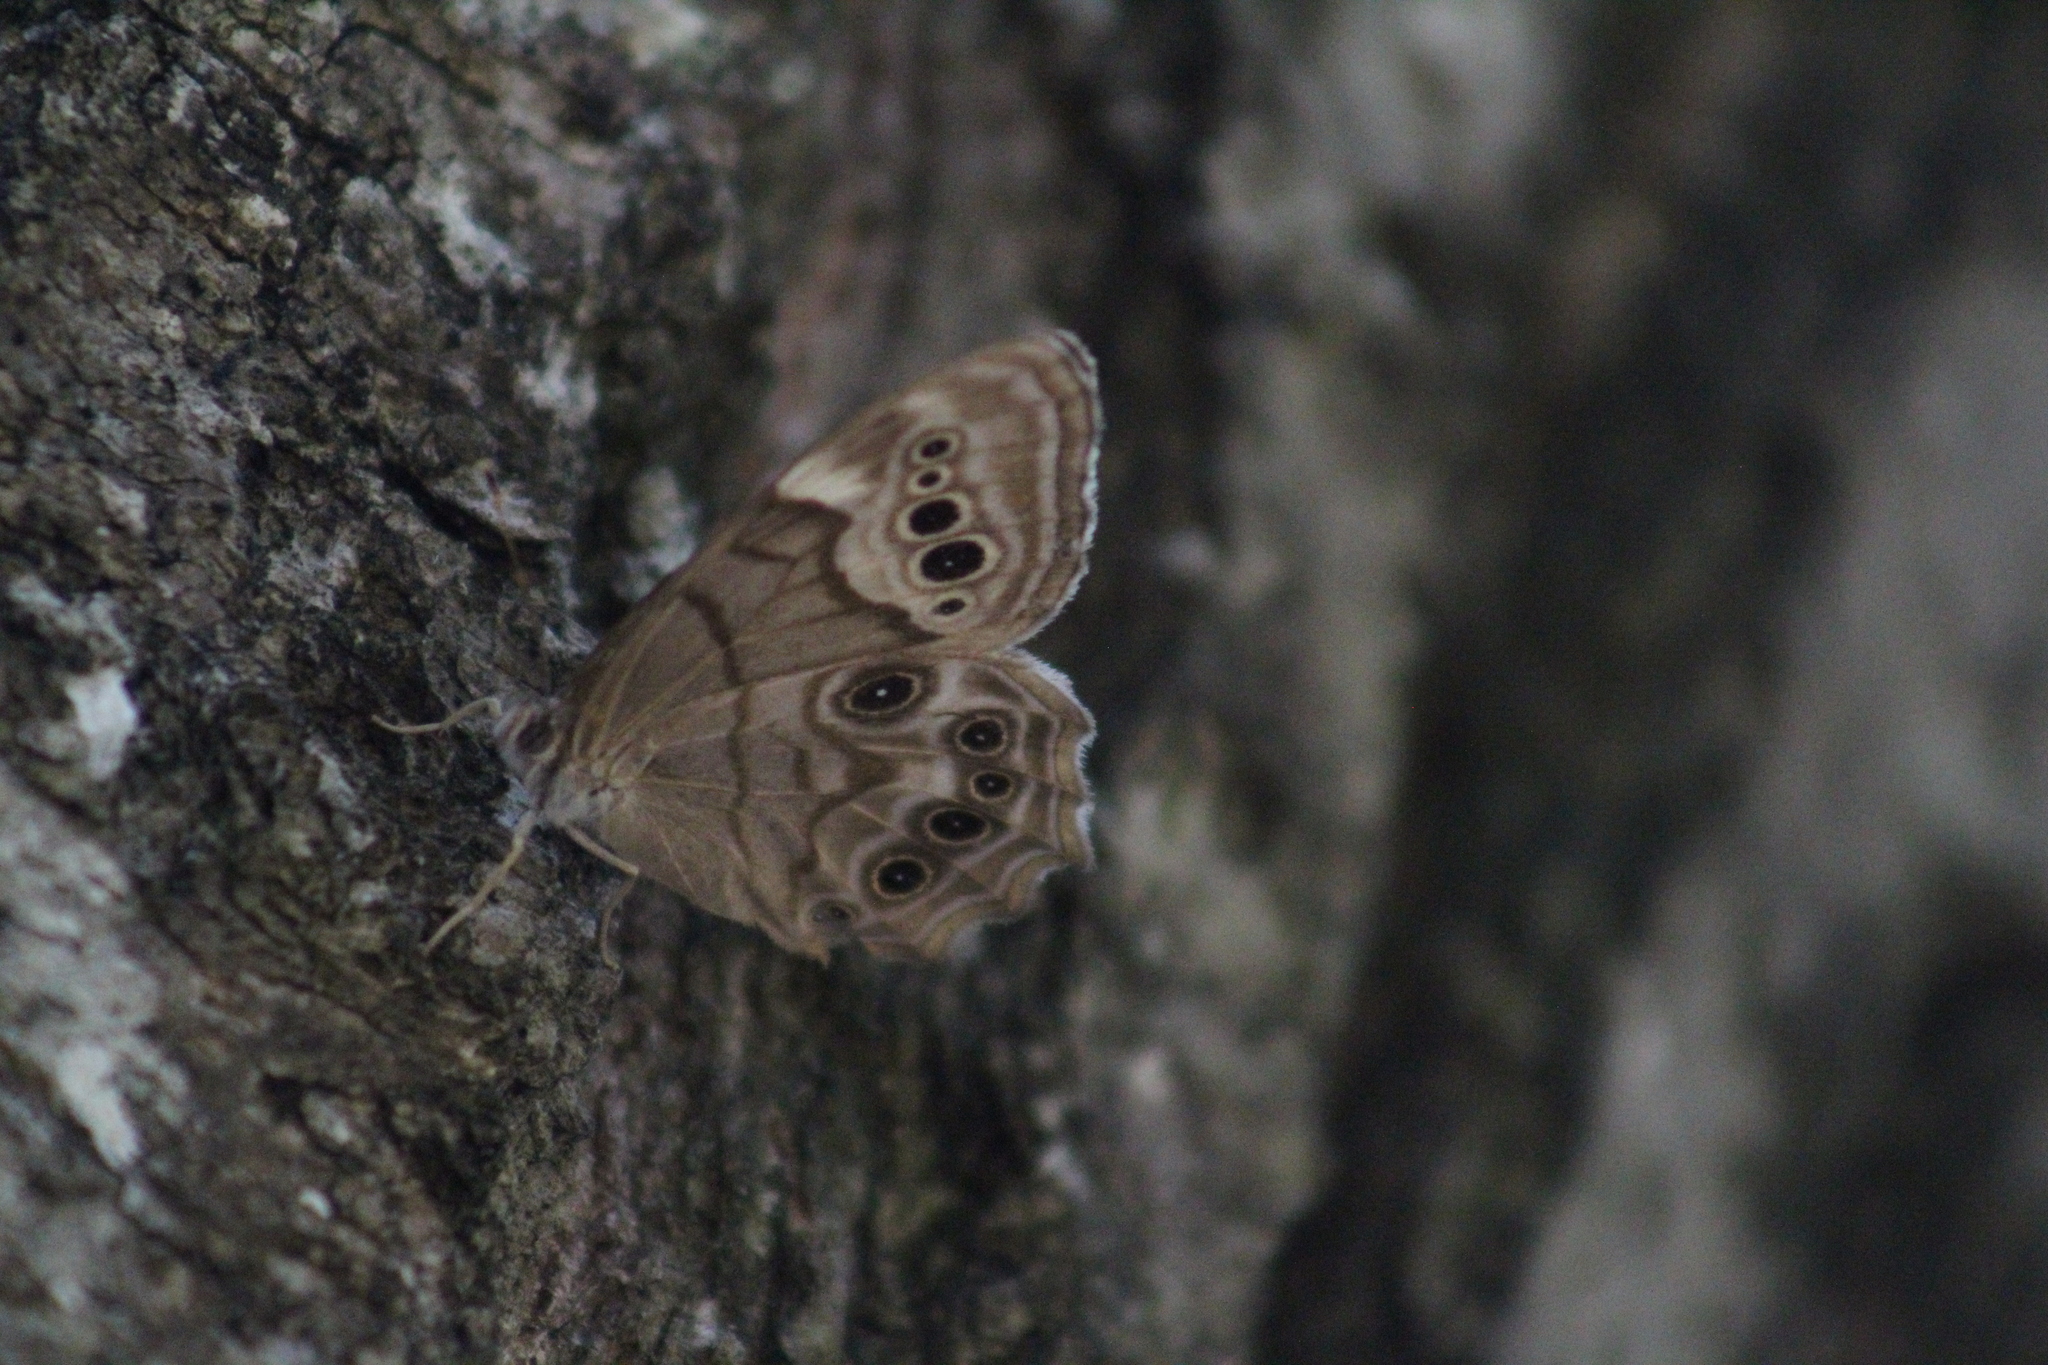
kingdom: Animalia
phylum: Arthropoda
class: Insecta
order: Lepidoptera
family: Nymphalidae
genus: Lethe
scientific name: Lethe anthedon
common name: Northern pearly-eye
